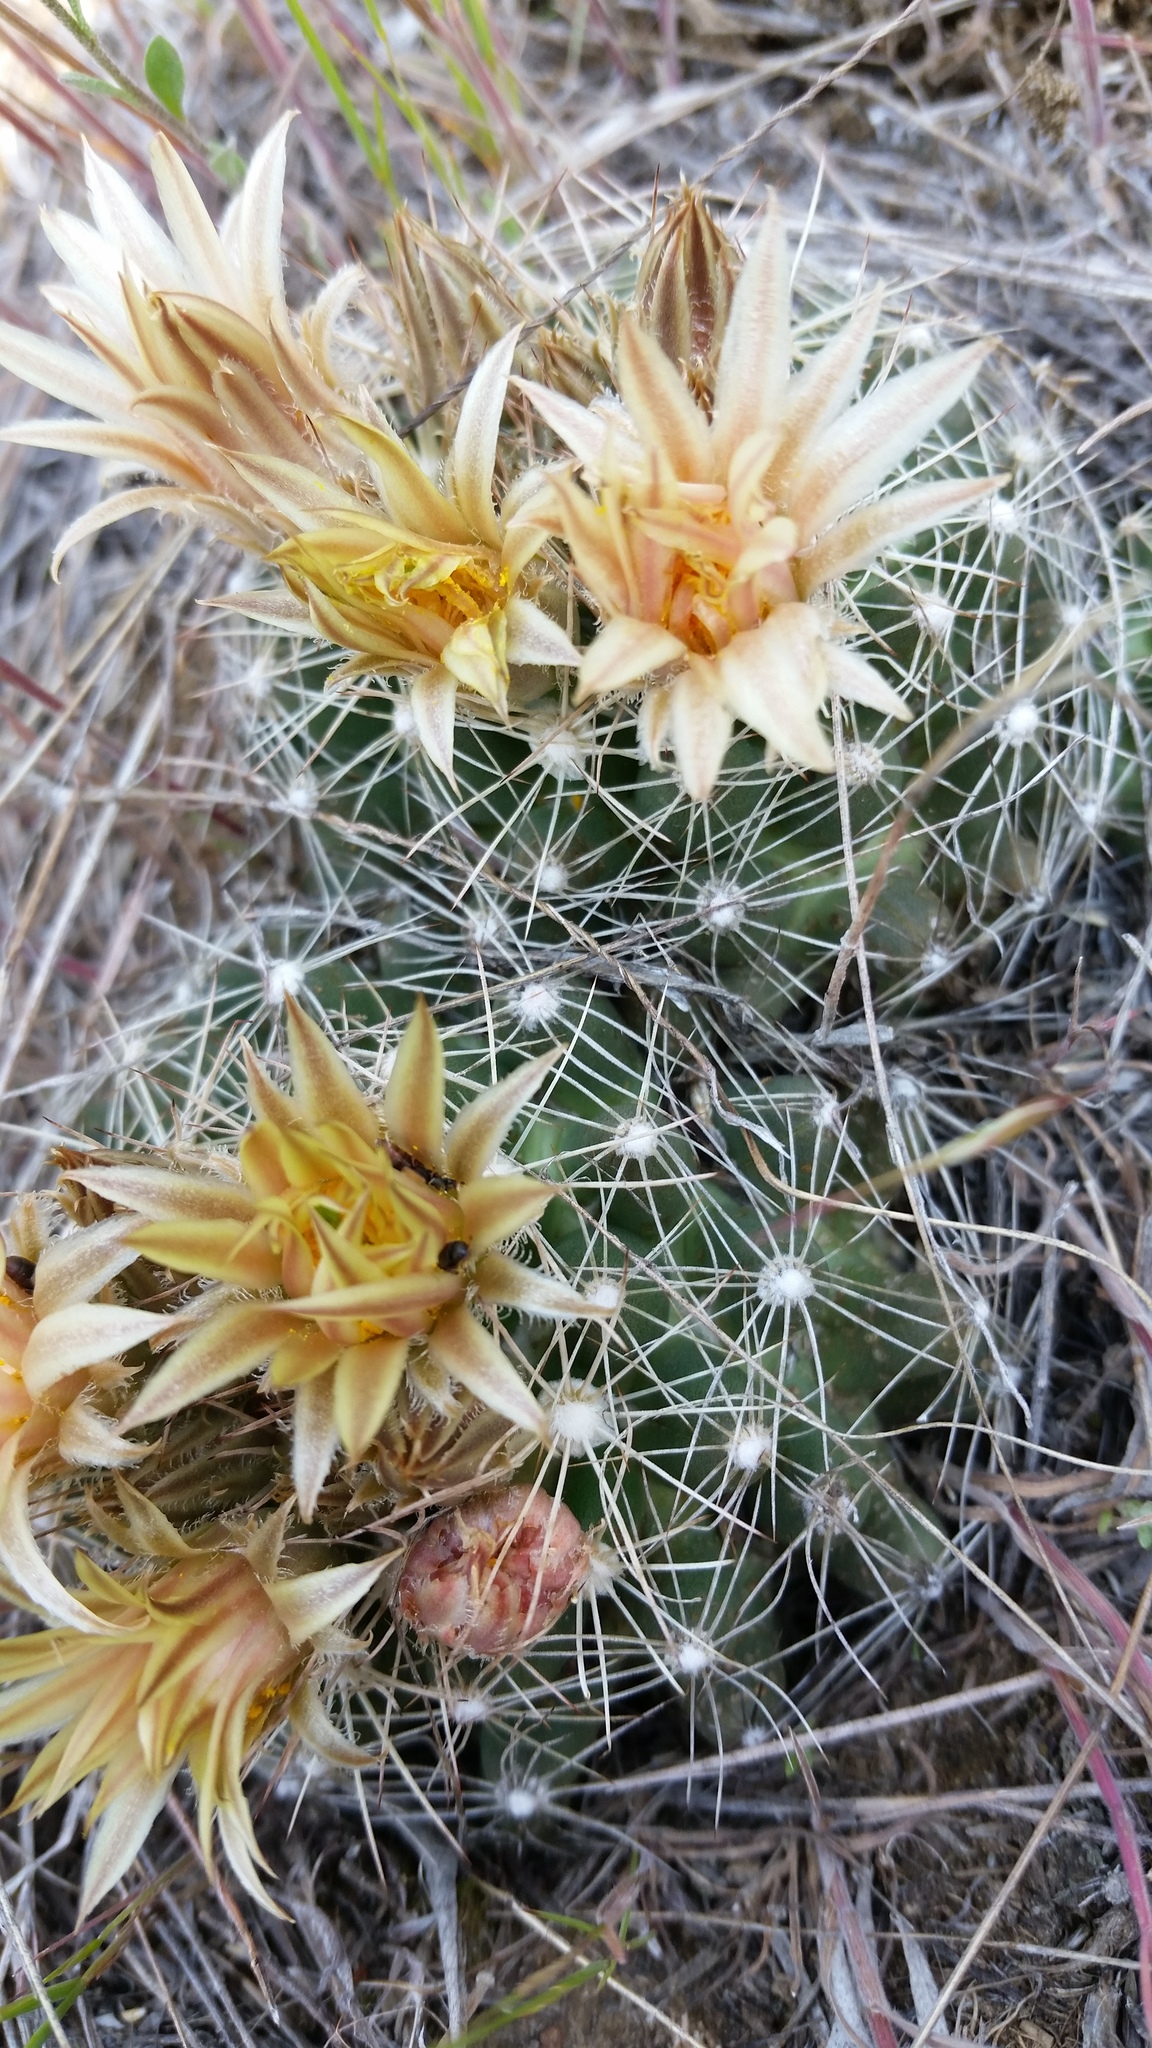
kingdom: Plantae
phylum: Tracheophyta
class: Magnoliopsida
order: Caryophyllales
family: Cactaceae
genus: Pelecyphora
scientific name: Pelecyphora missouriensis
